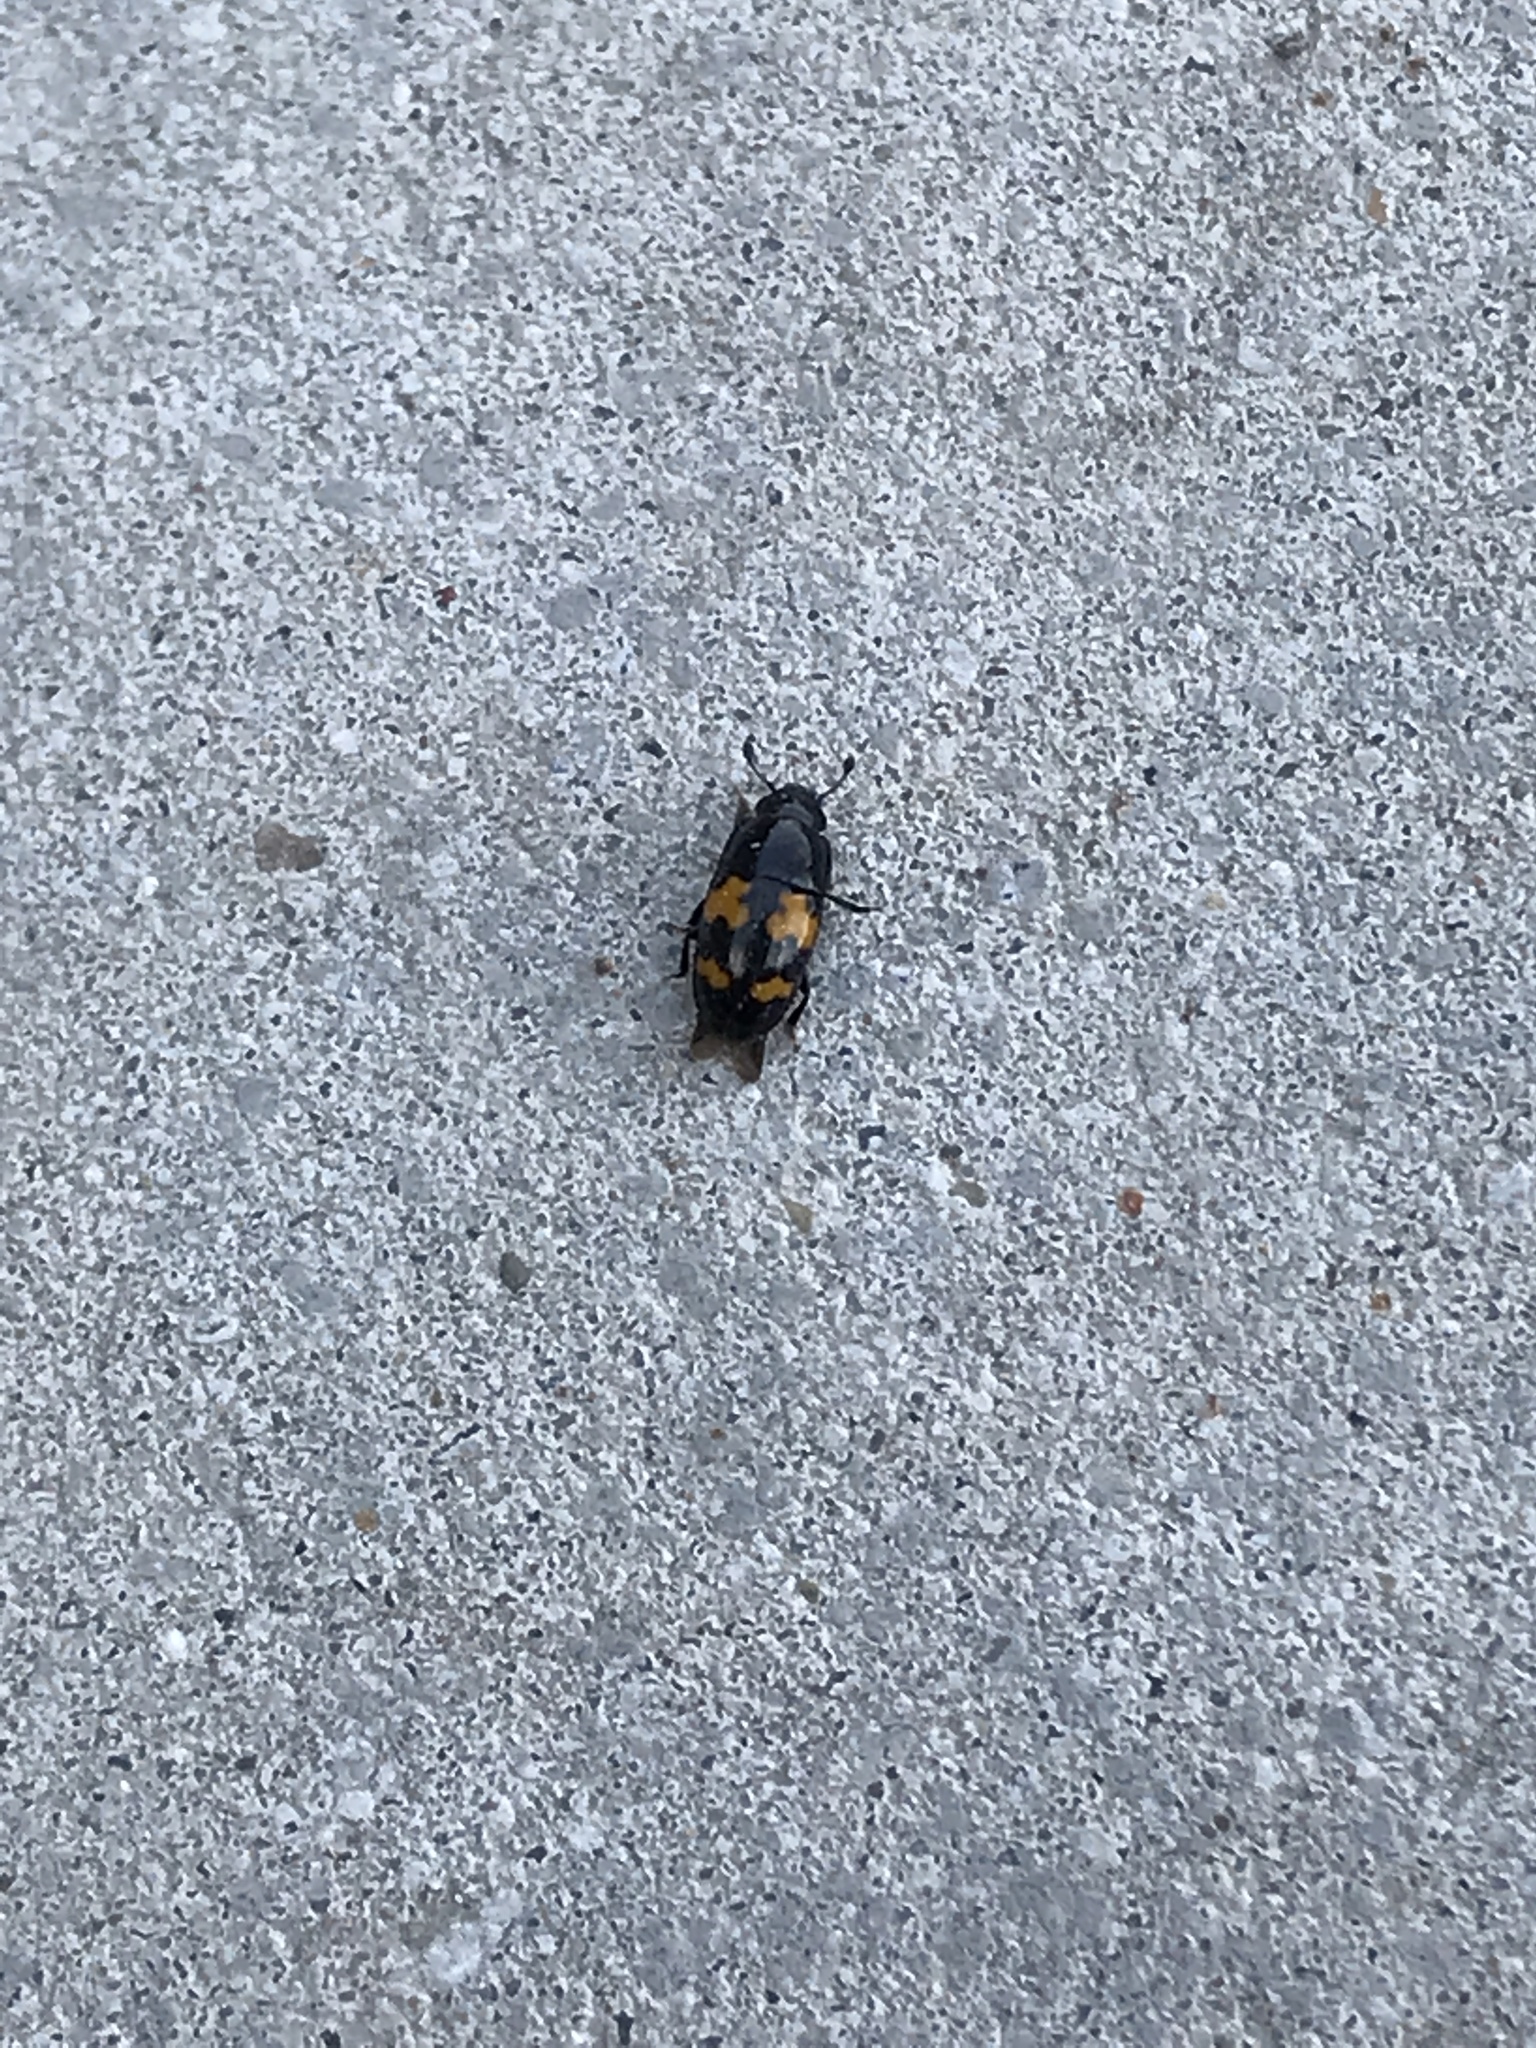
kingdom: Animalia
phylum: Arthropoda
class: Insecta
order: Coleoptera
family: Nitidulidae
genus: Glischrochilus
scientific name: Glischrochilus fasciatus
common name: Picnic beetle
